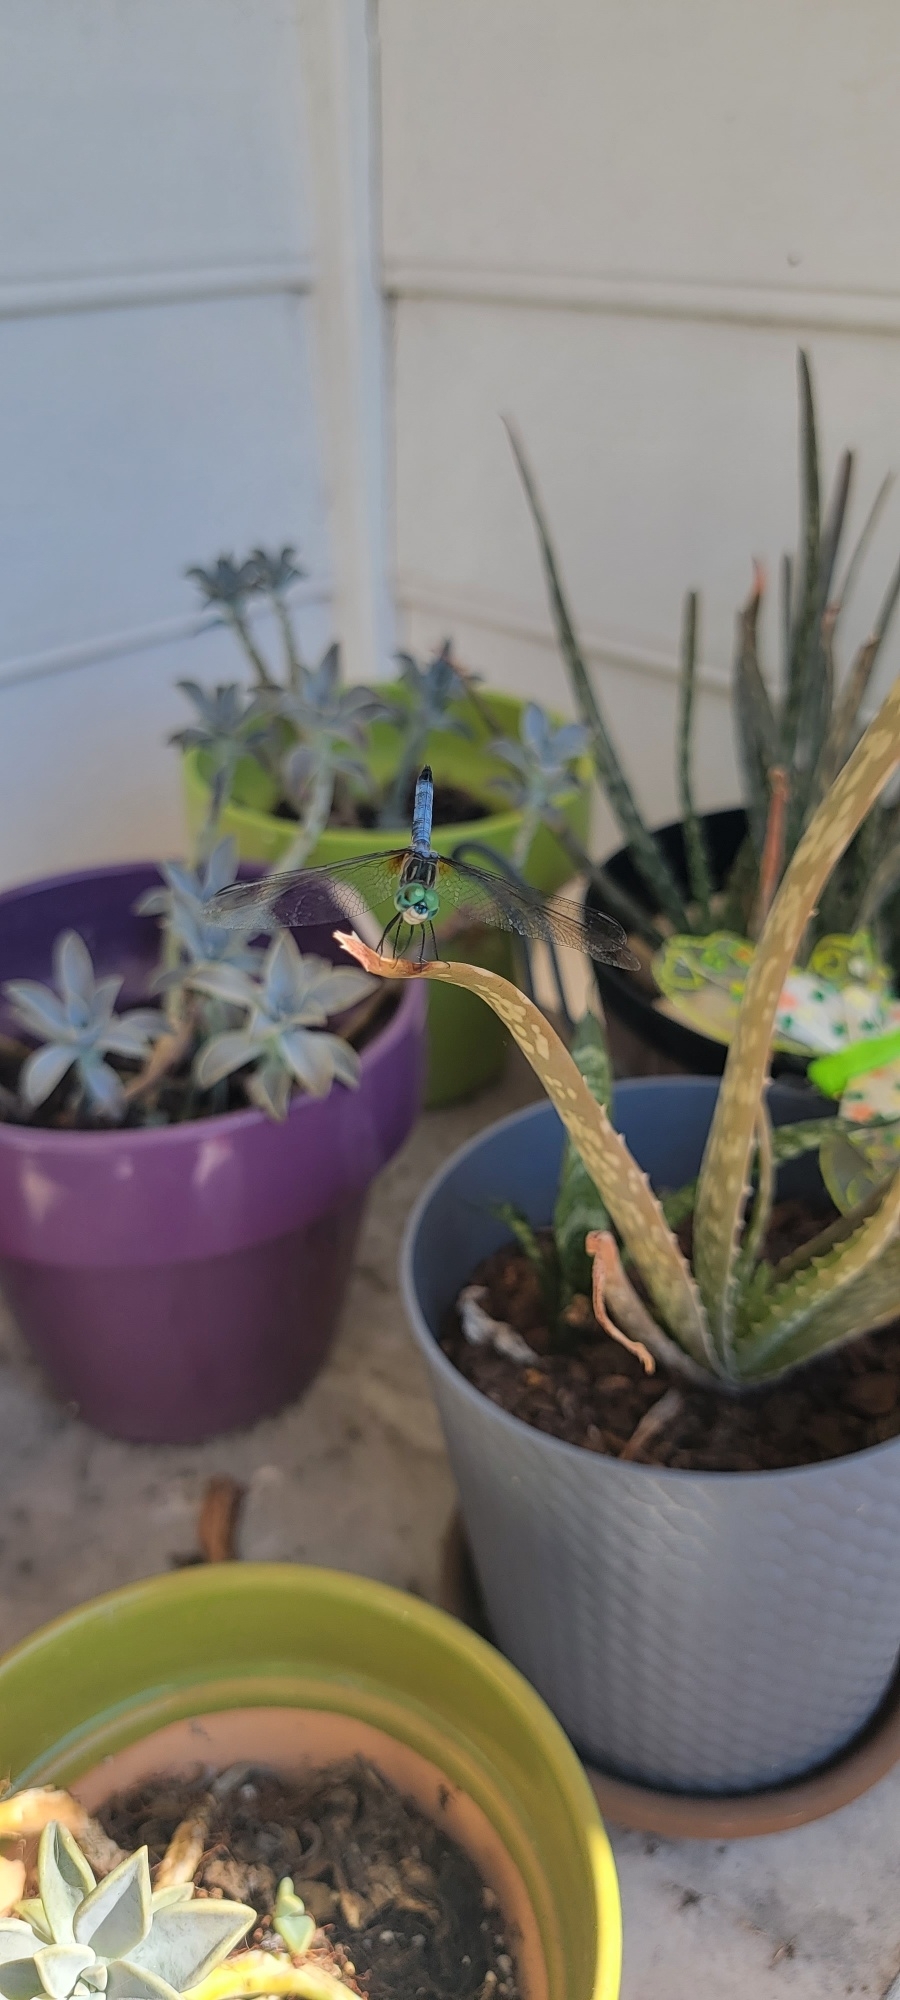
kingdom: Animalia
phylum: Arthropoda
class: Insecta
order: Odonata
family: Libellulidae
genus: Pachydiplax
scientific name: Pachydiplax longipennis
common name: Blue dasher
